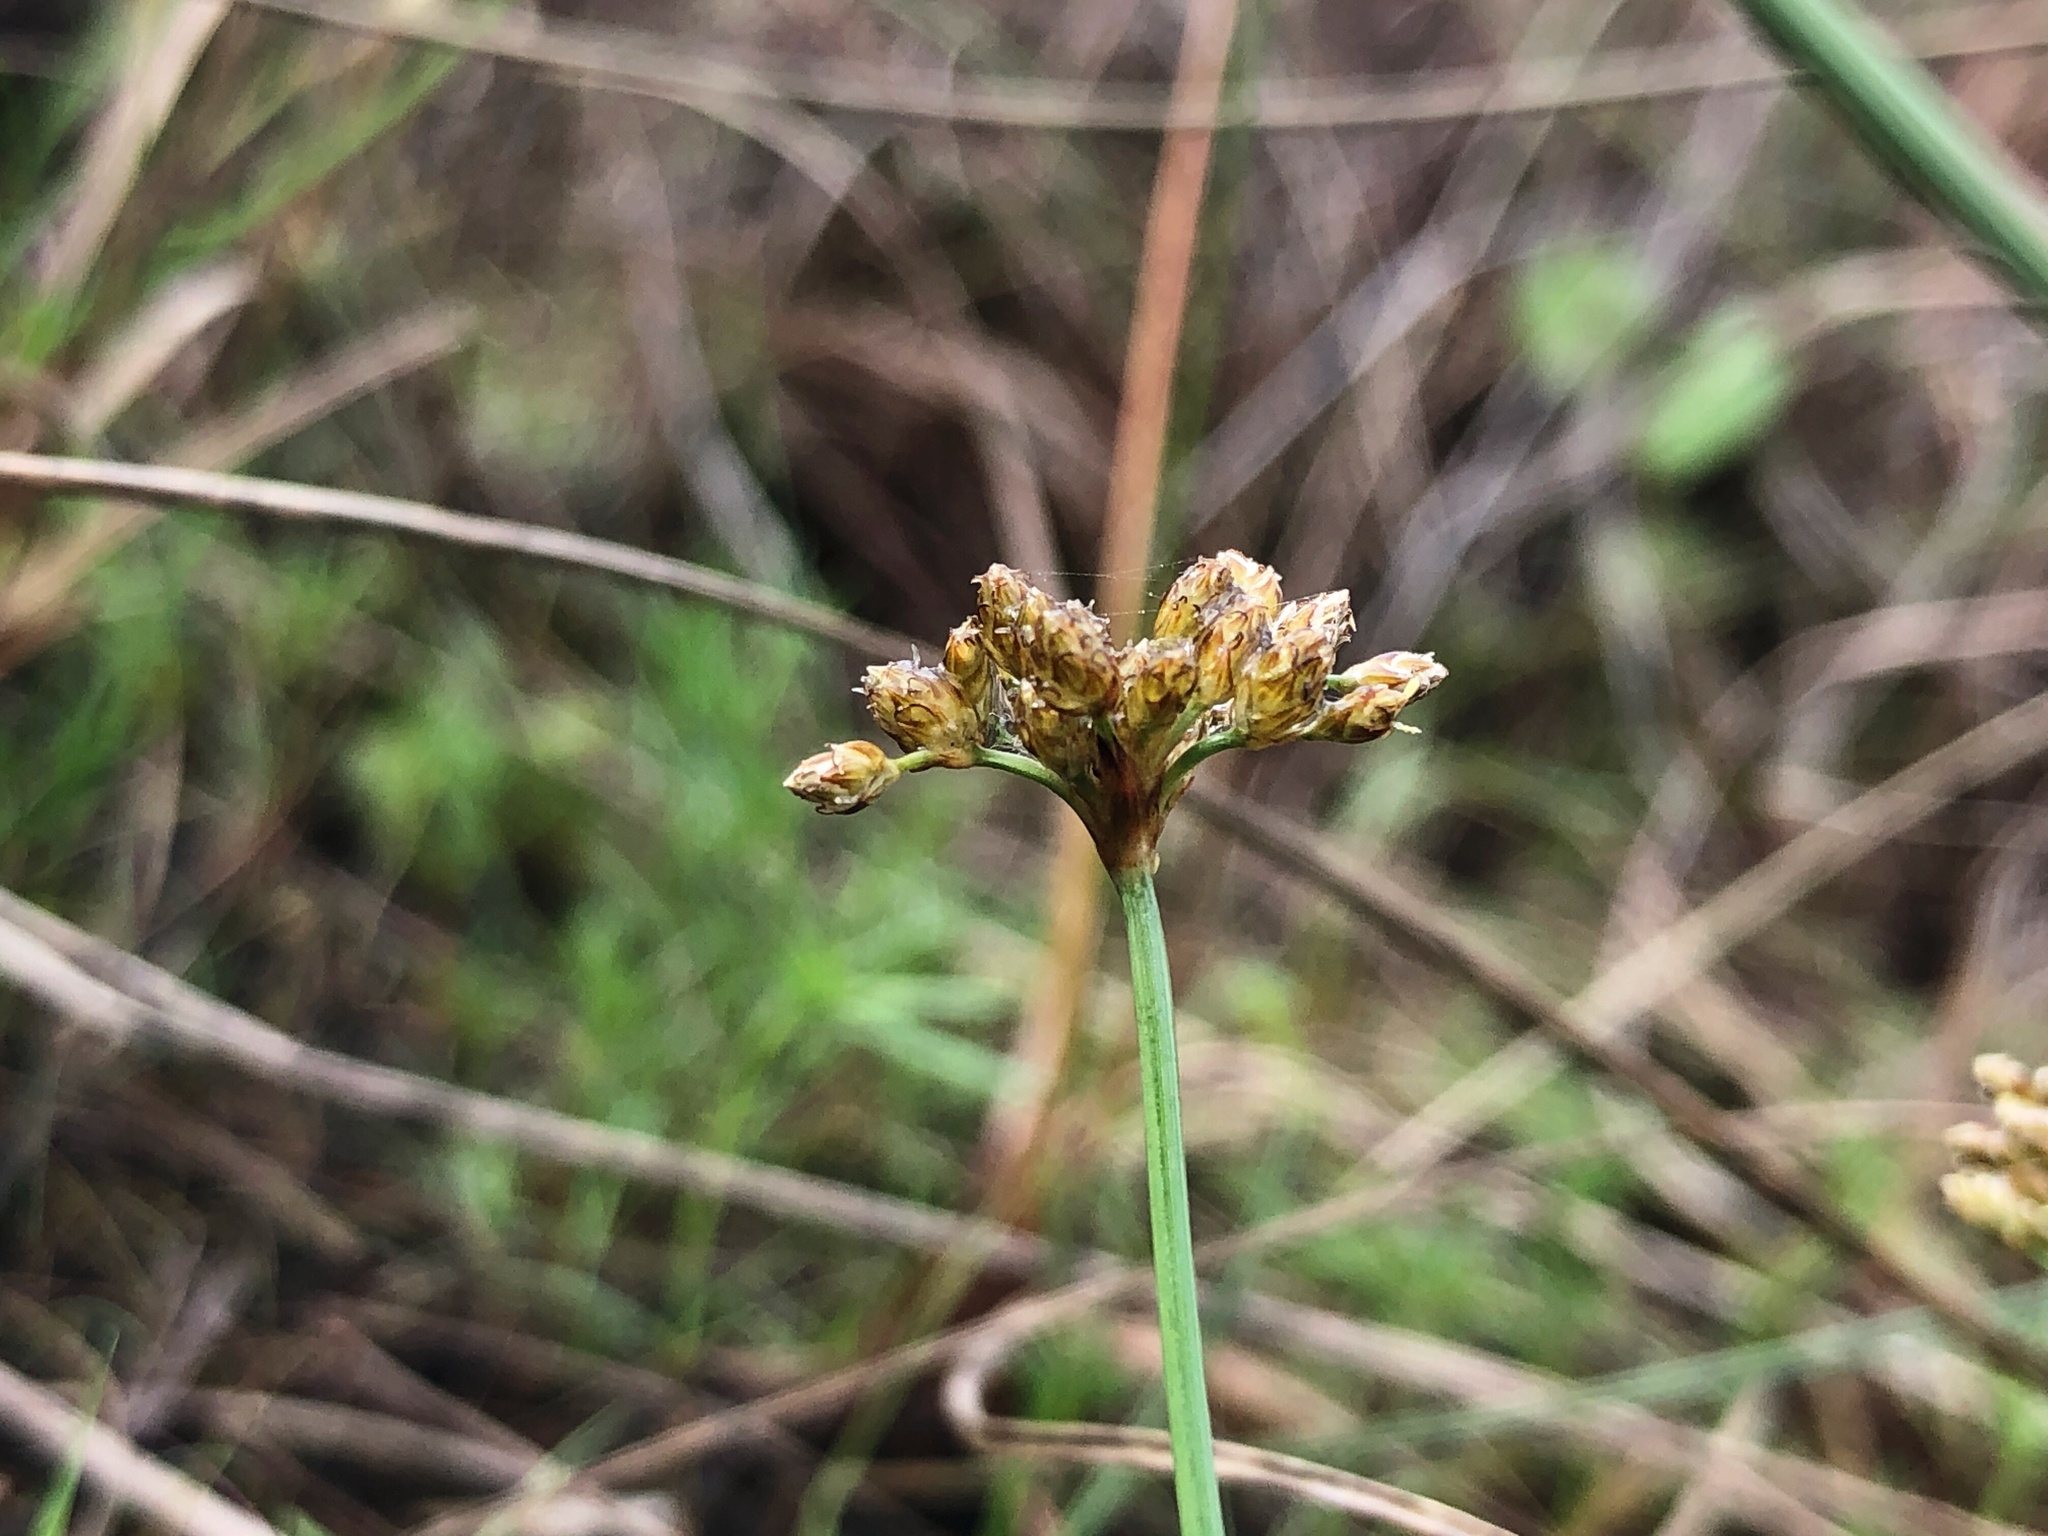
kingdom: Plantae
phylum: Tracheophyta
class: Liliopsida
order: Poales
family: Cyperaceae
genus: Fimbristylis
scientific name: Fimbristylis cymosa
